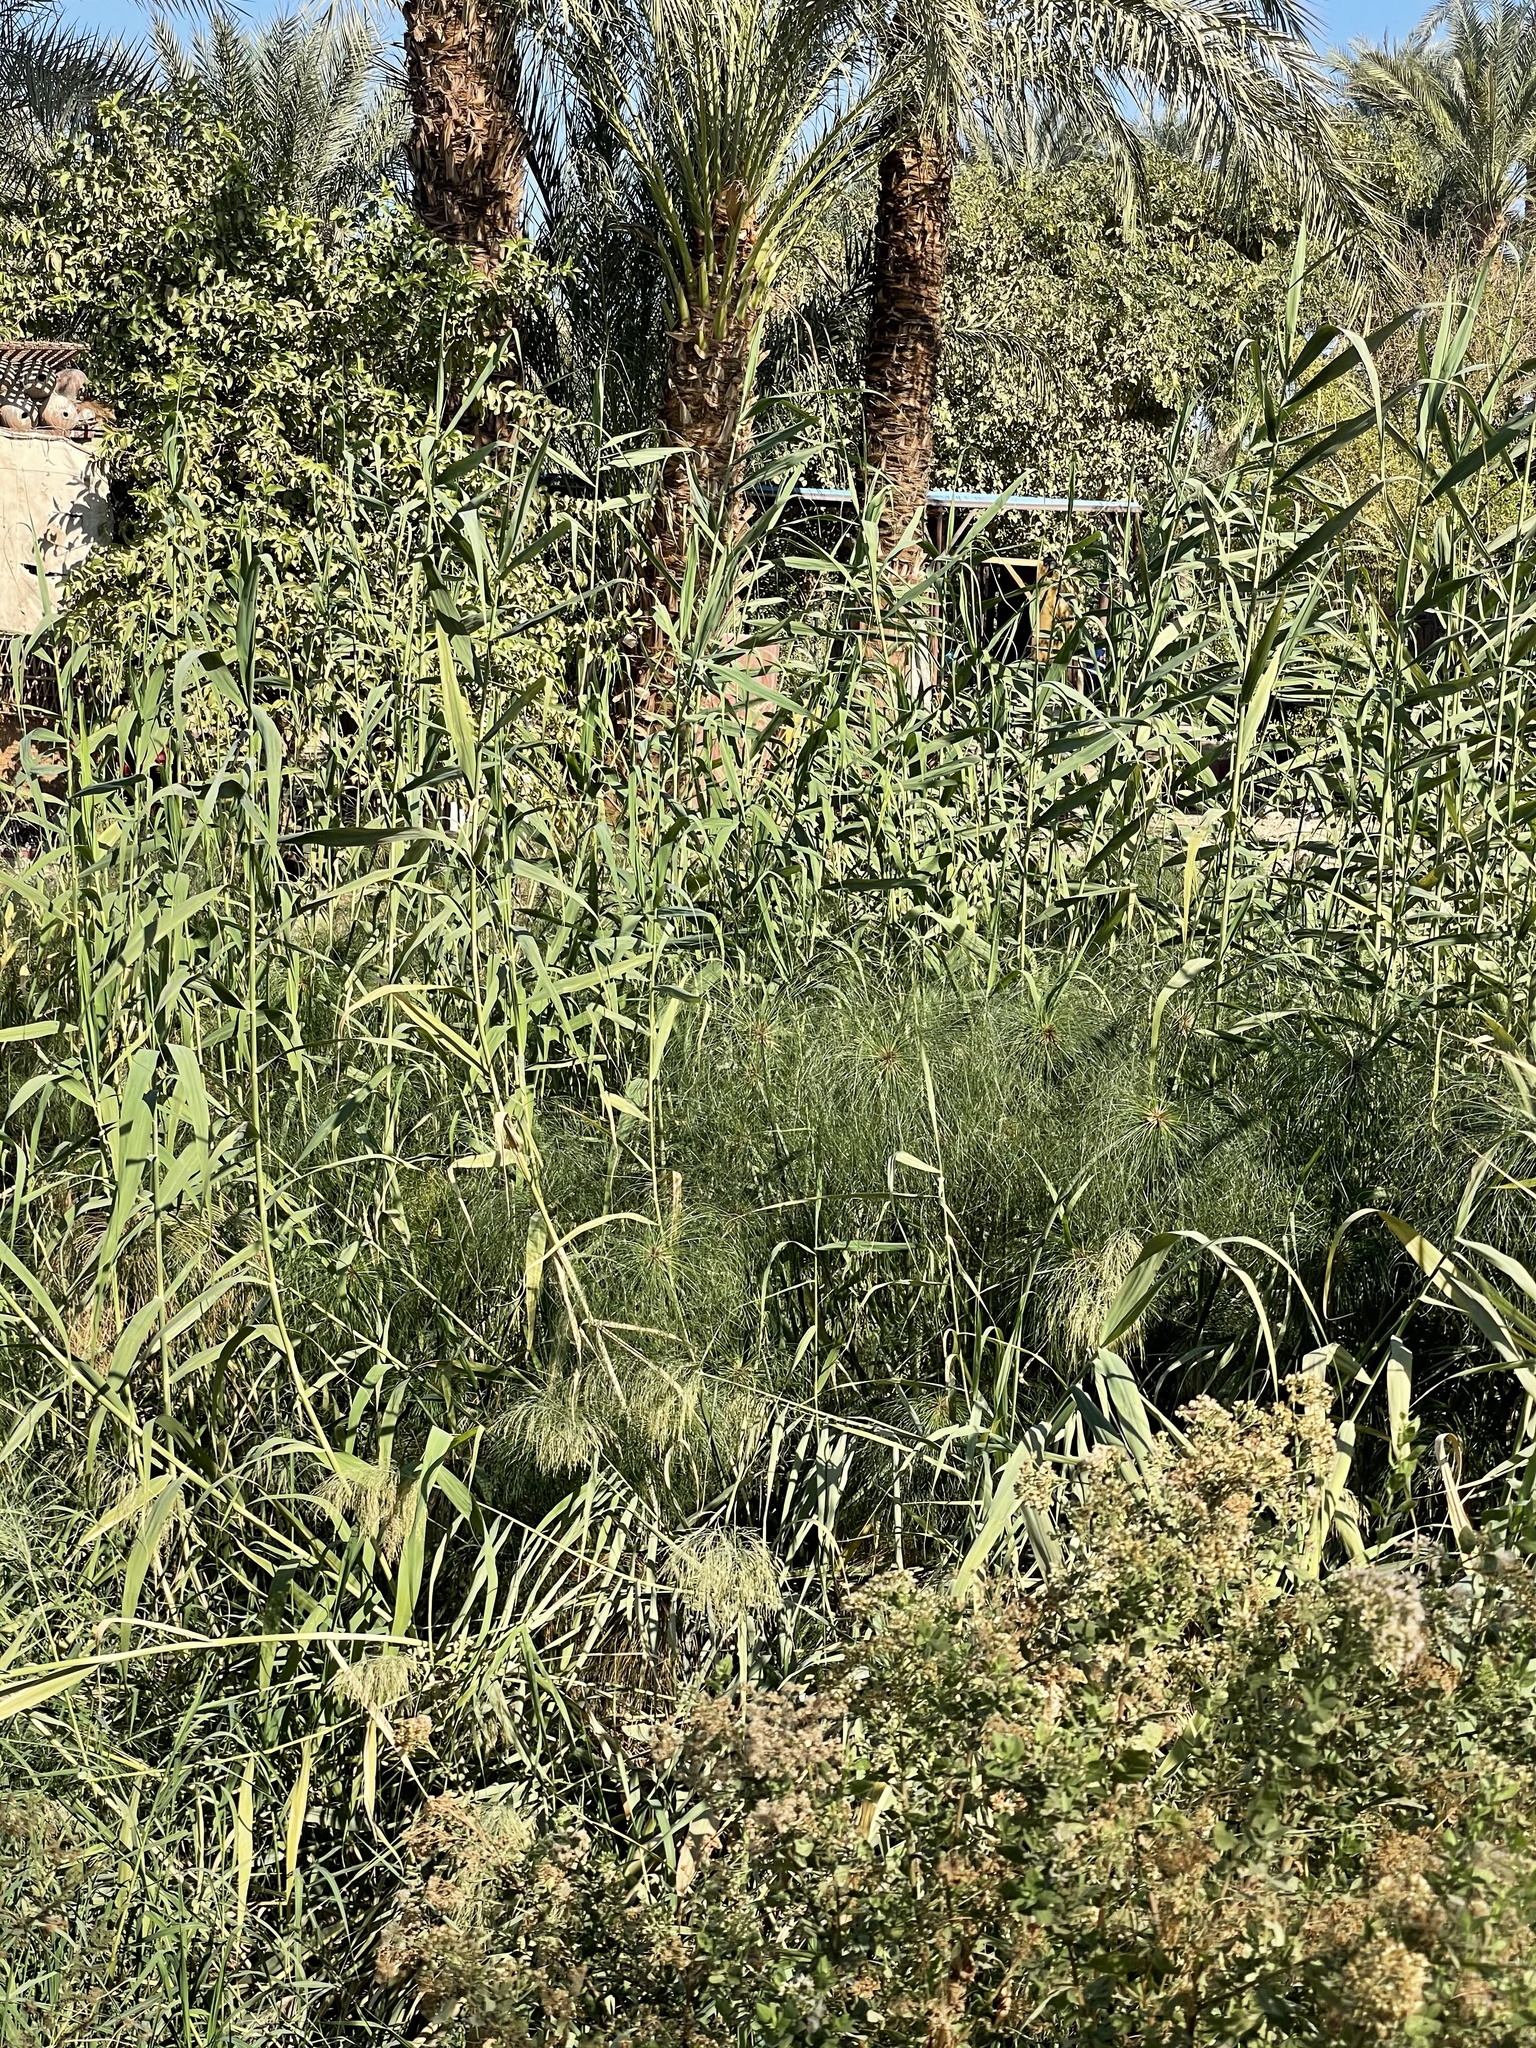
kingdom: Plantae
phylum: Tracheophyta
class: Liliopsida
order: Poales
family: Cyperaceae
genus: Cyperus
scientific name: Cyperus papyrus
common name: Papyrus
